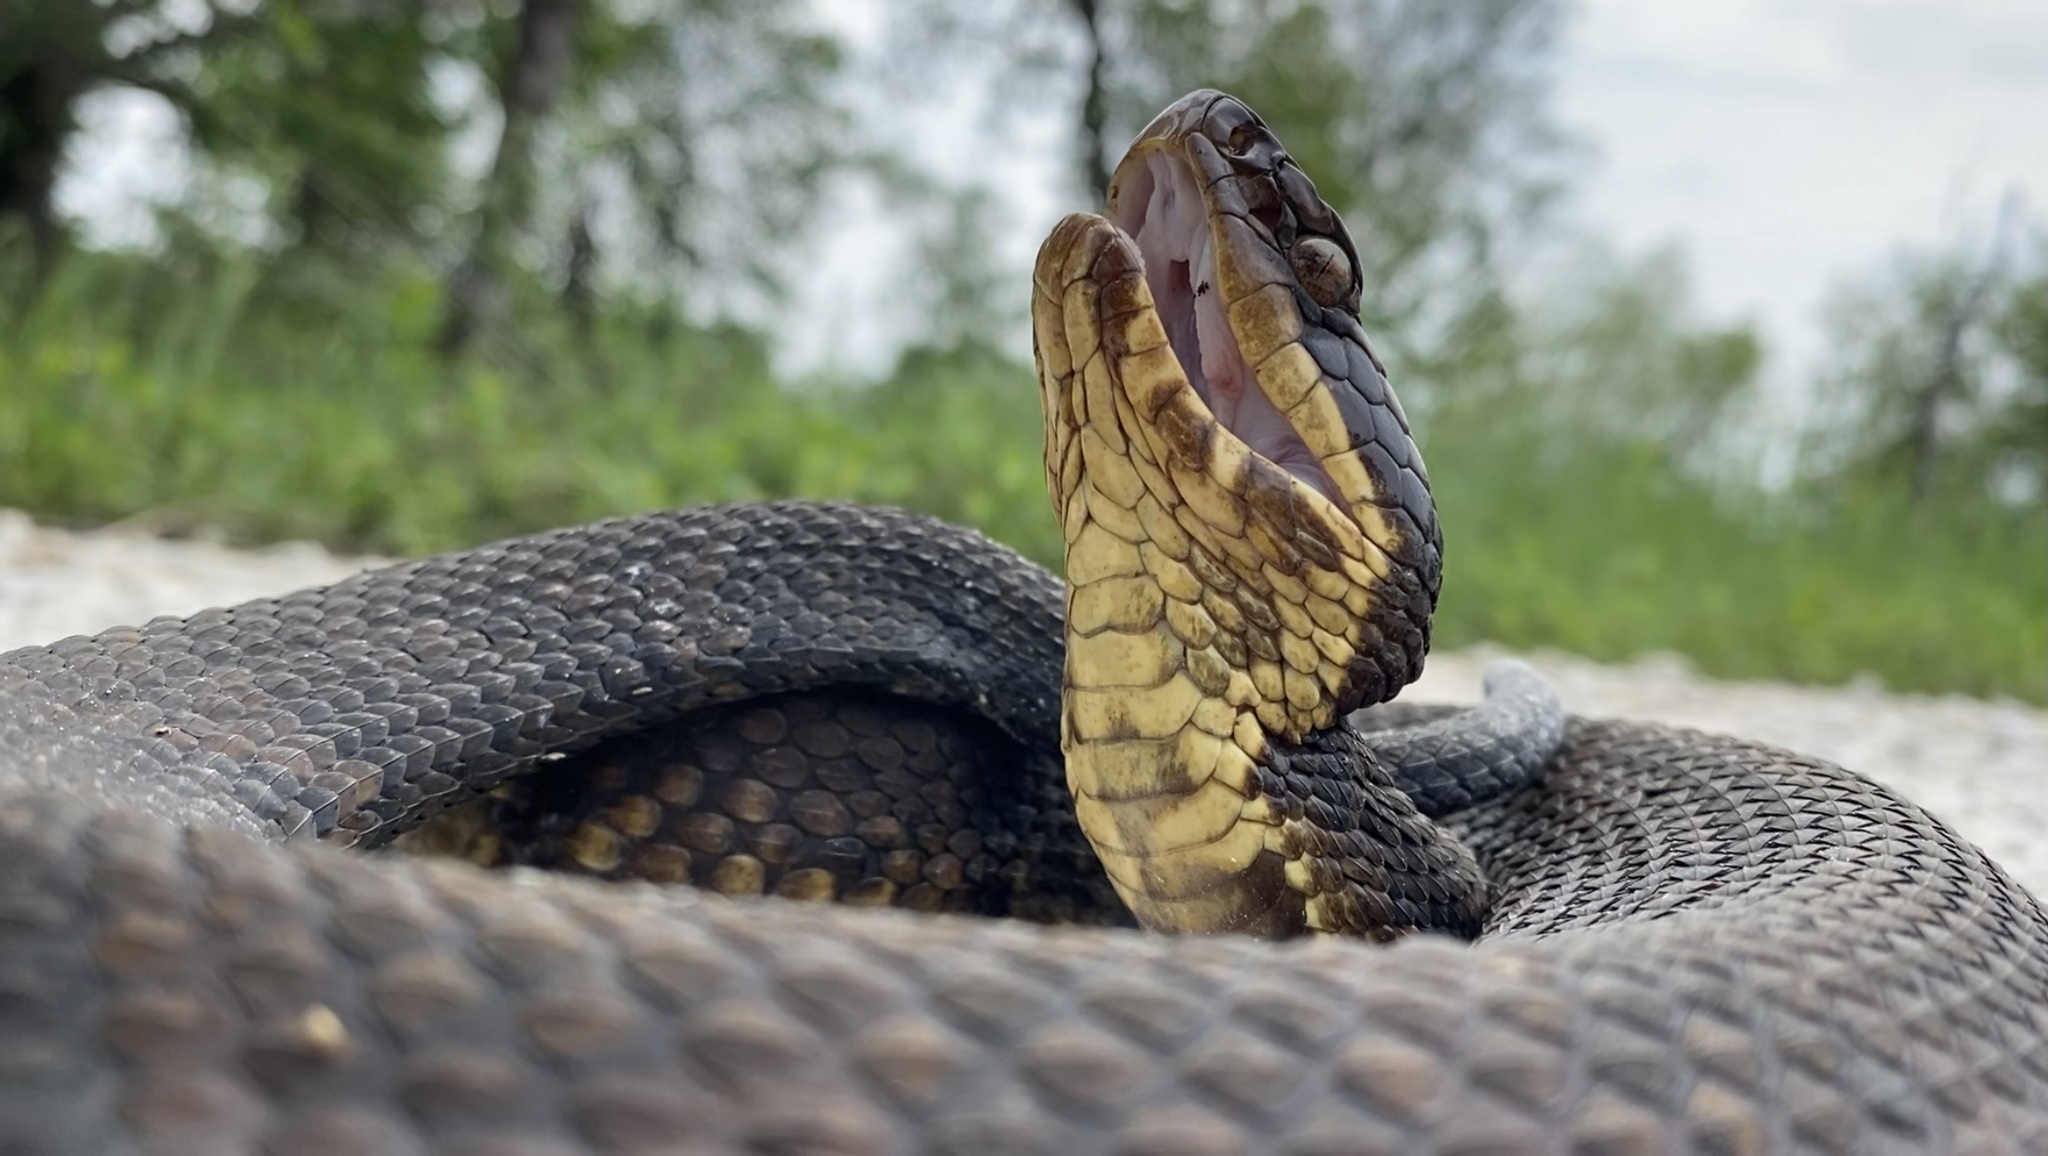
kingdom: Animalia
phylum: Chordata
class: Squamata
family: Viperidae
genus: Agkistrodon
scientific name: Agkistrodon piscivorus
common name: Cottonmouth
